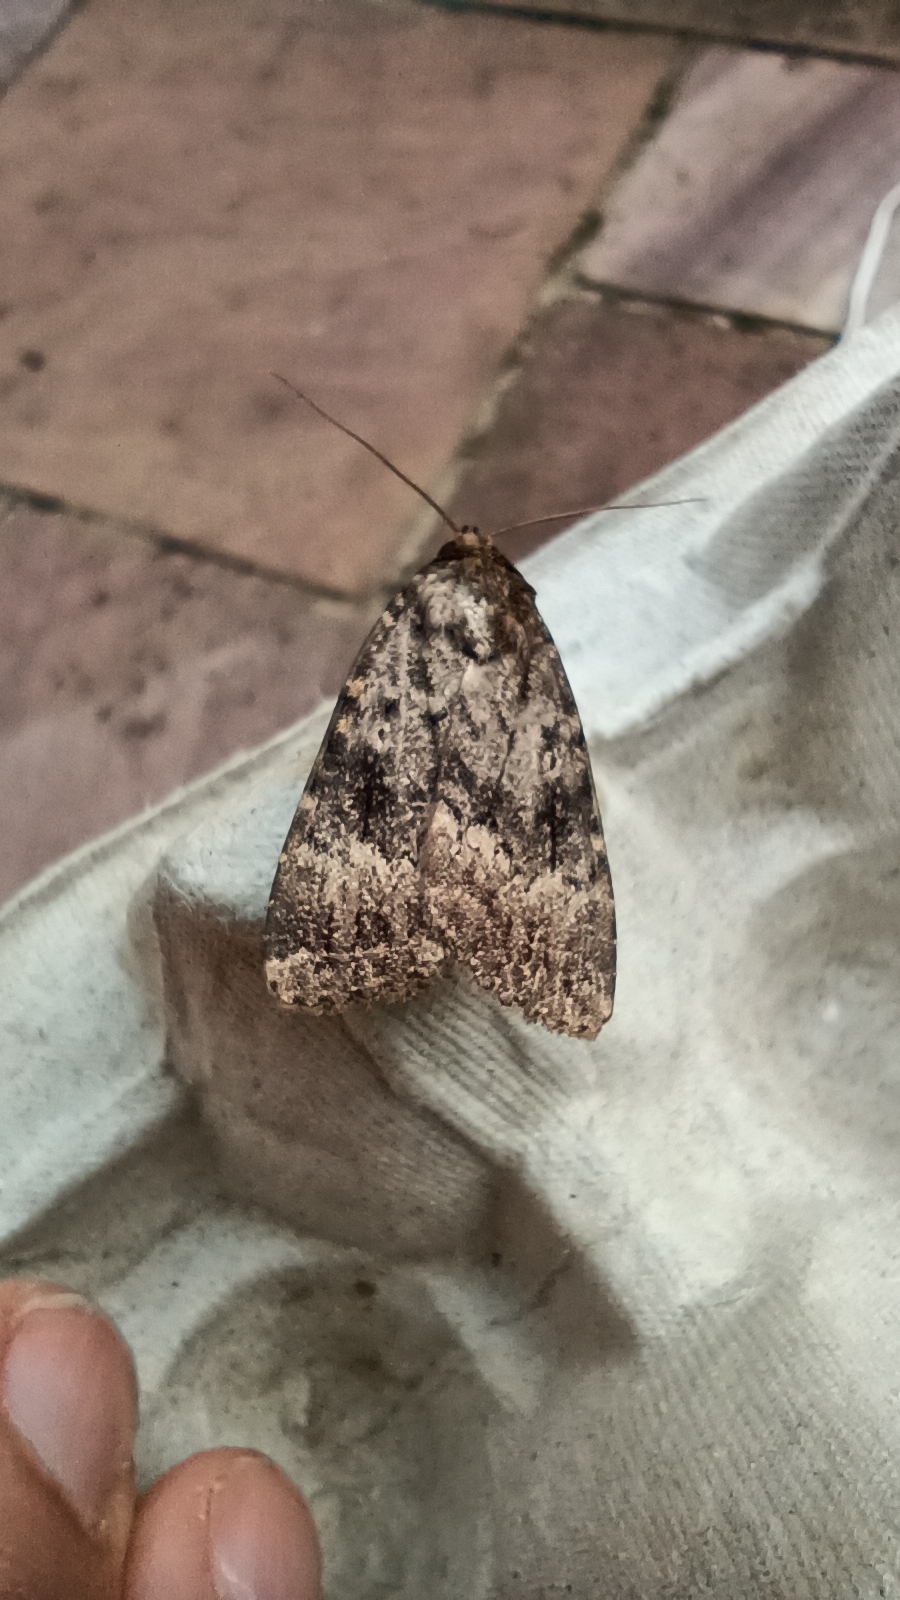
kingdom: Animalia
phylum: Arthropoda
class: Insecta
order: Lepidoptera
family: Noctuidae
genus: Amphipyra
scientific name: Amphipyra
